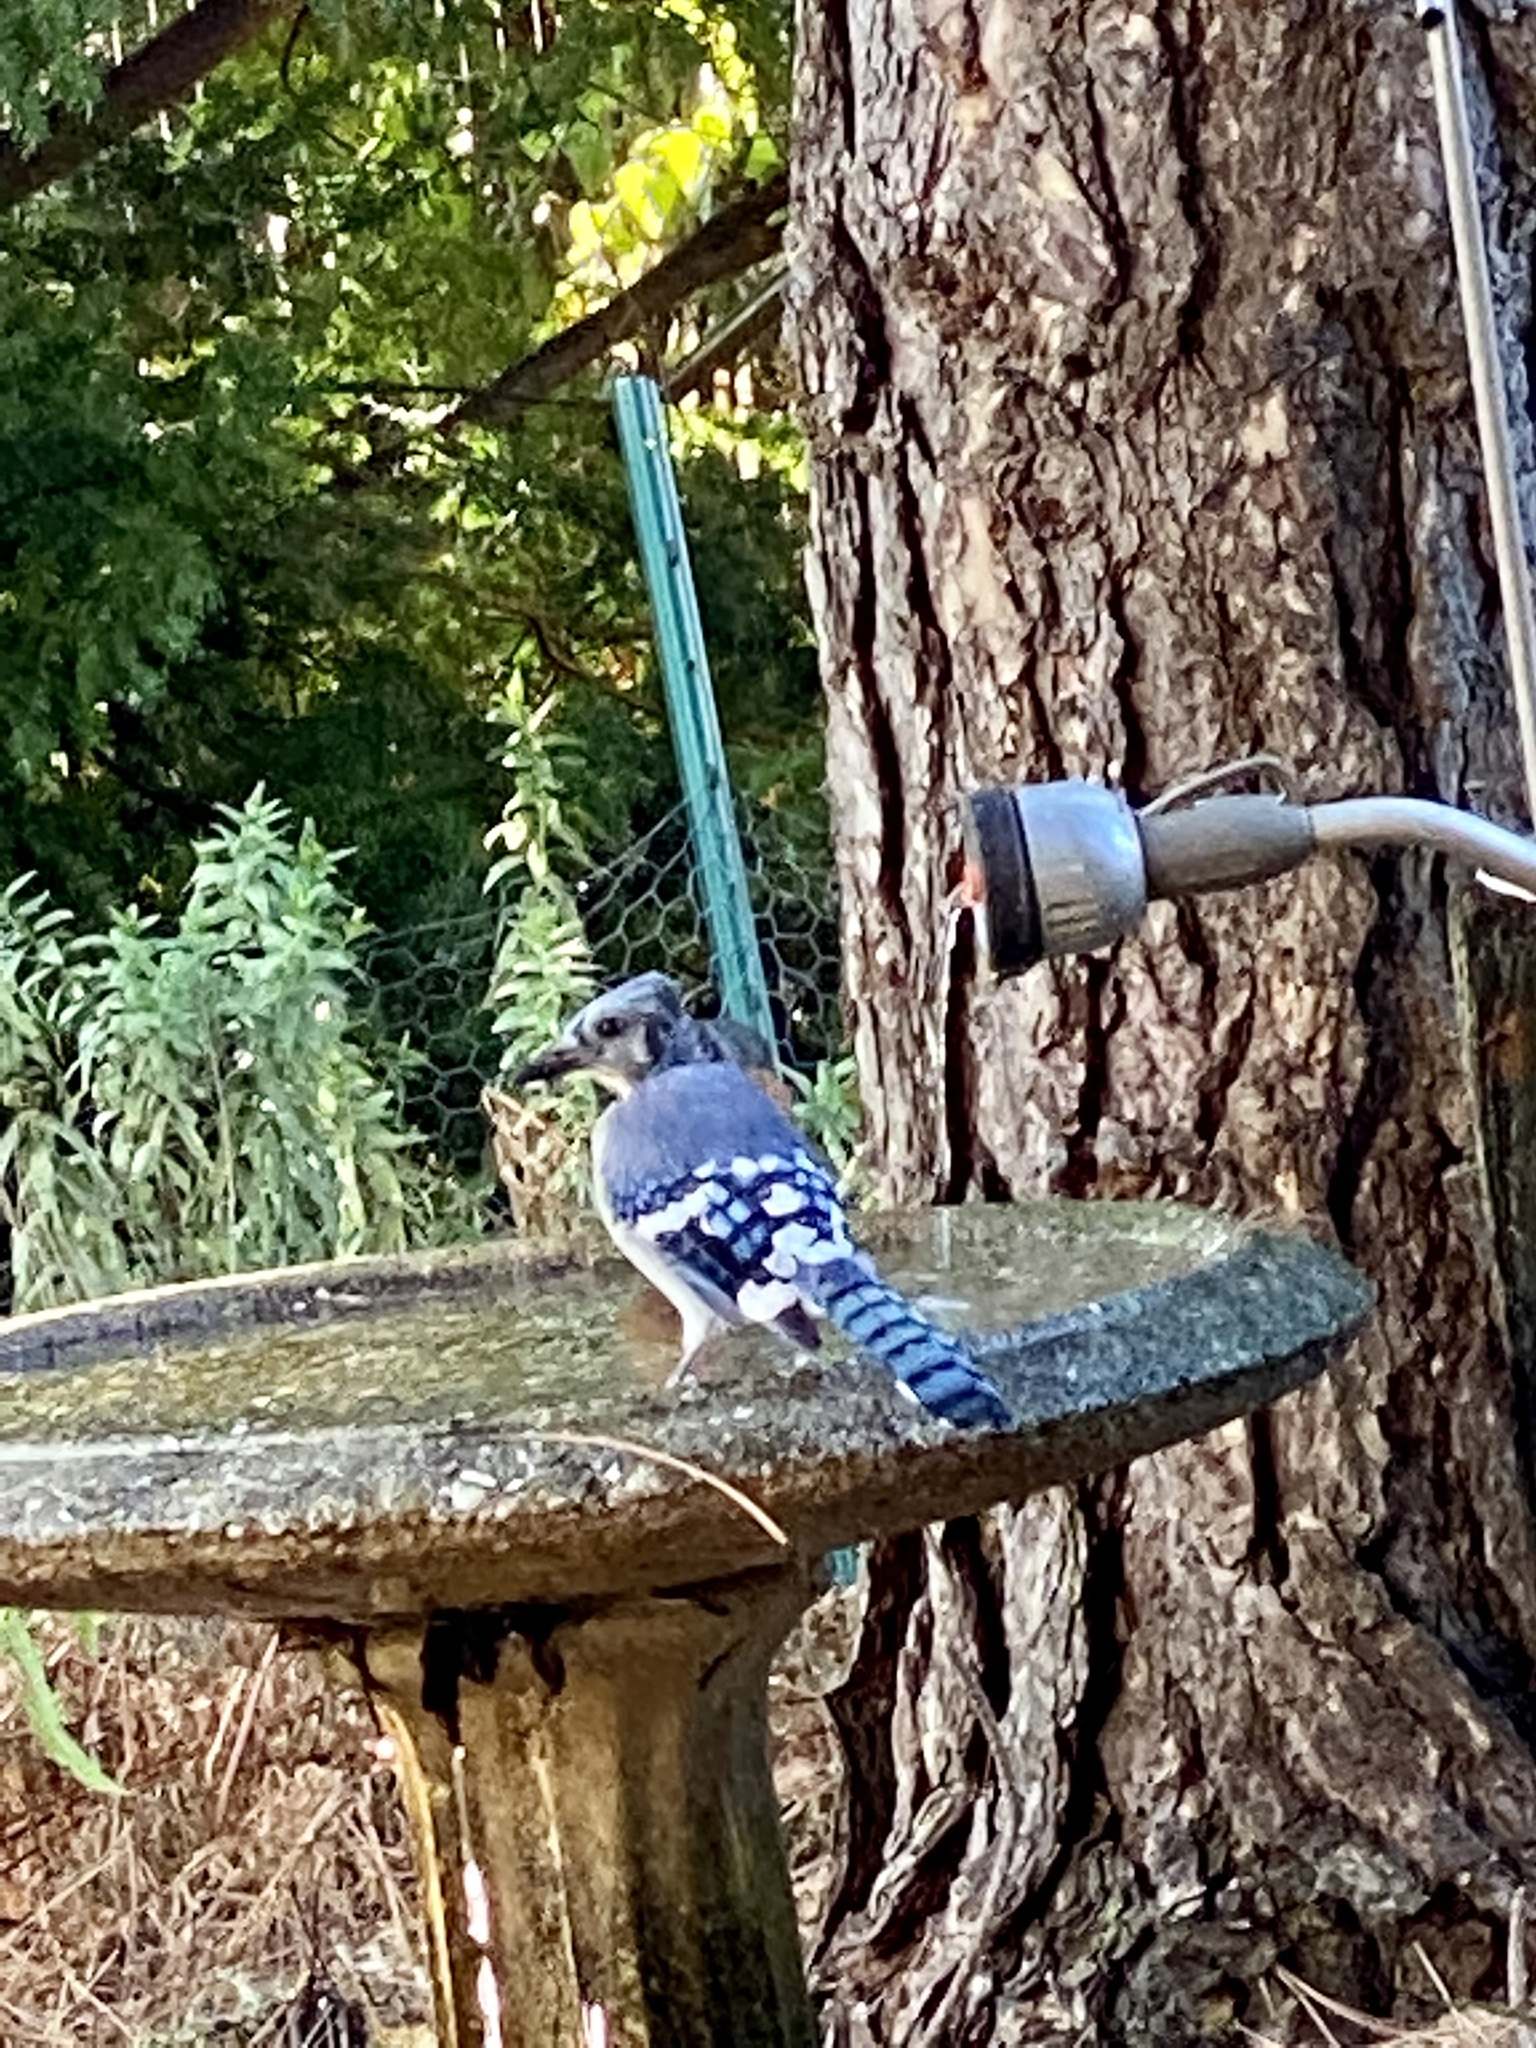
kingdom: Animalia
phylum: Chordata
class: Aves
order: Passeriformes
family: Corvidae
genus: Cyanocitta
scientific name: Cyanocitta cristata
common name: Blue jay
